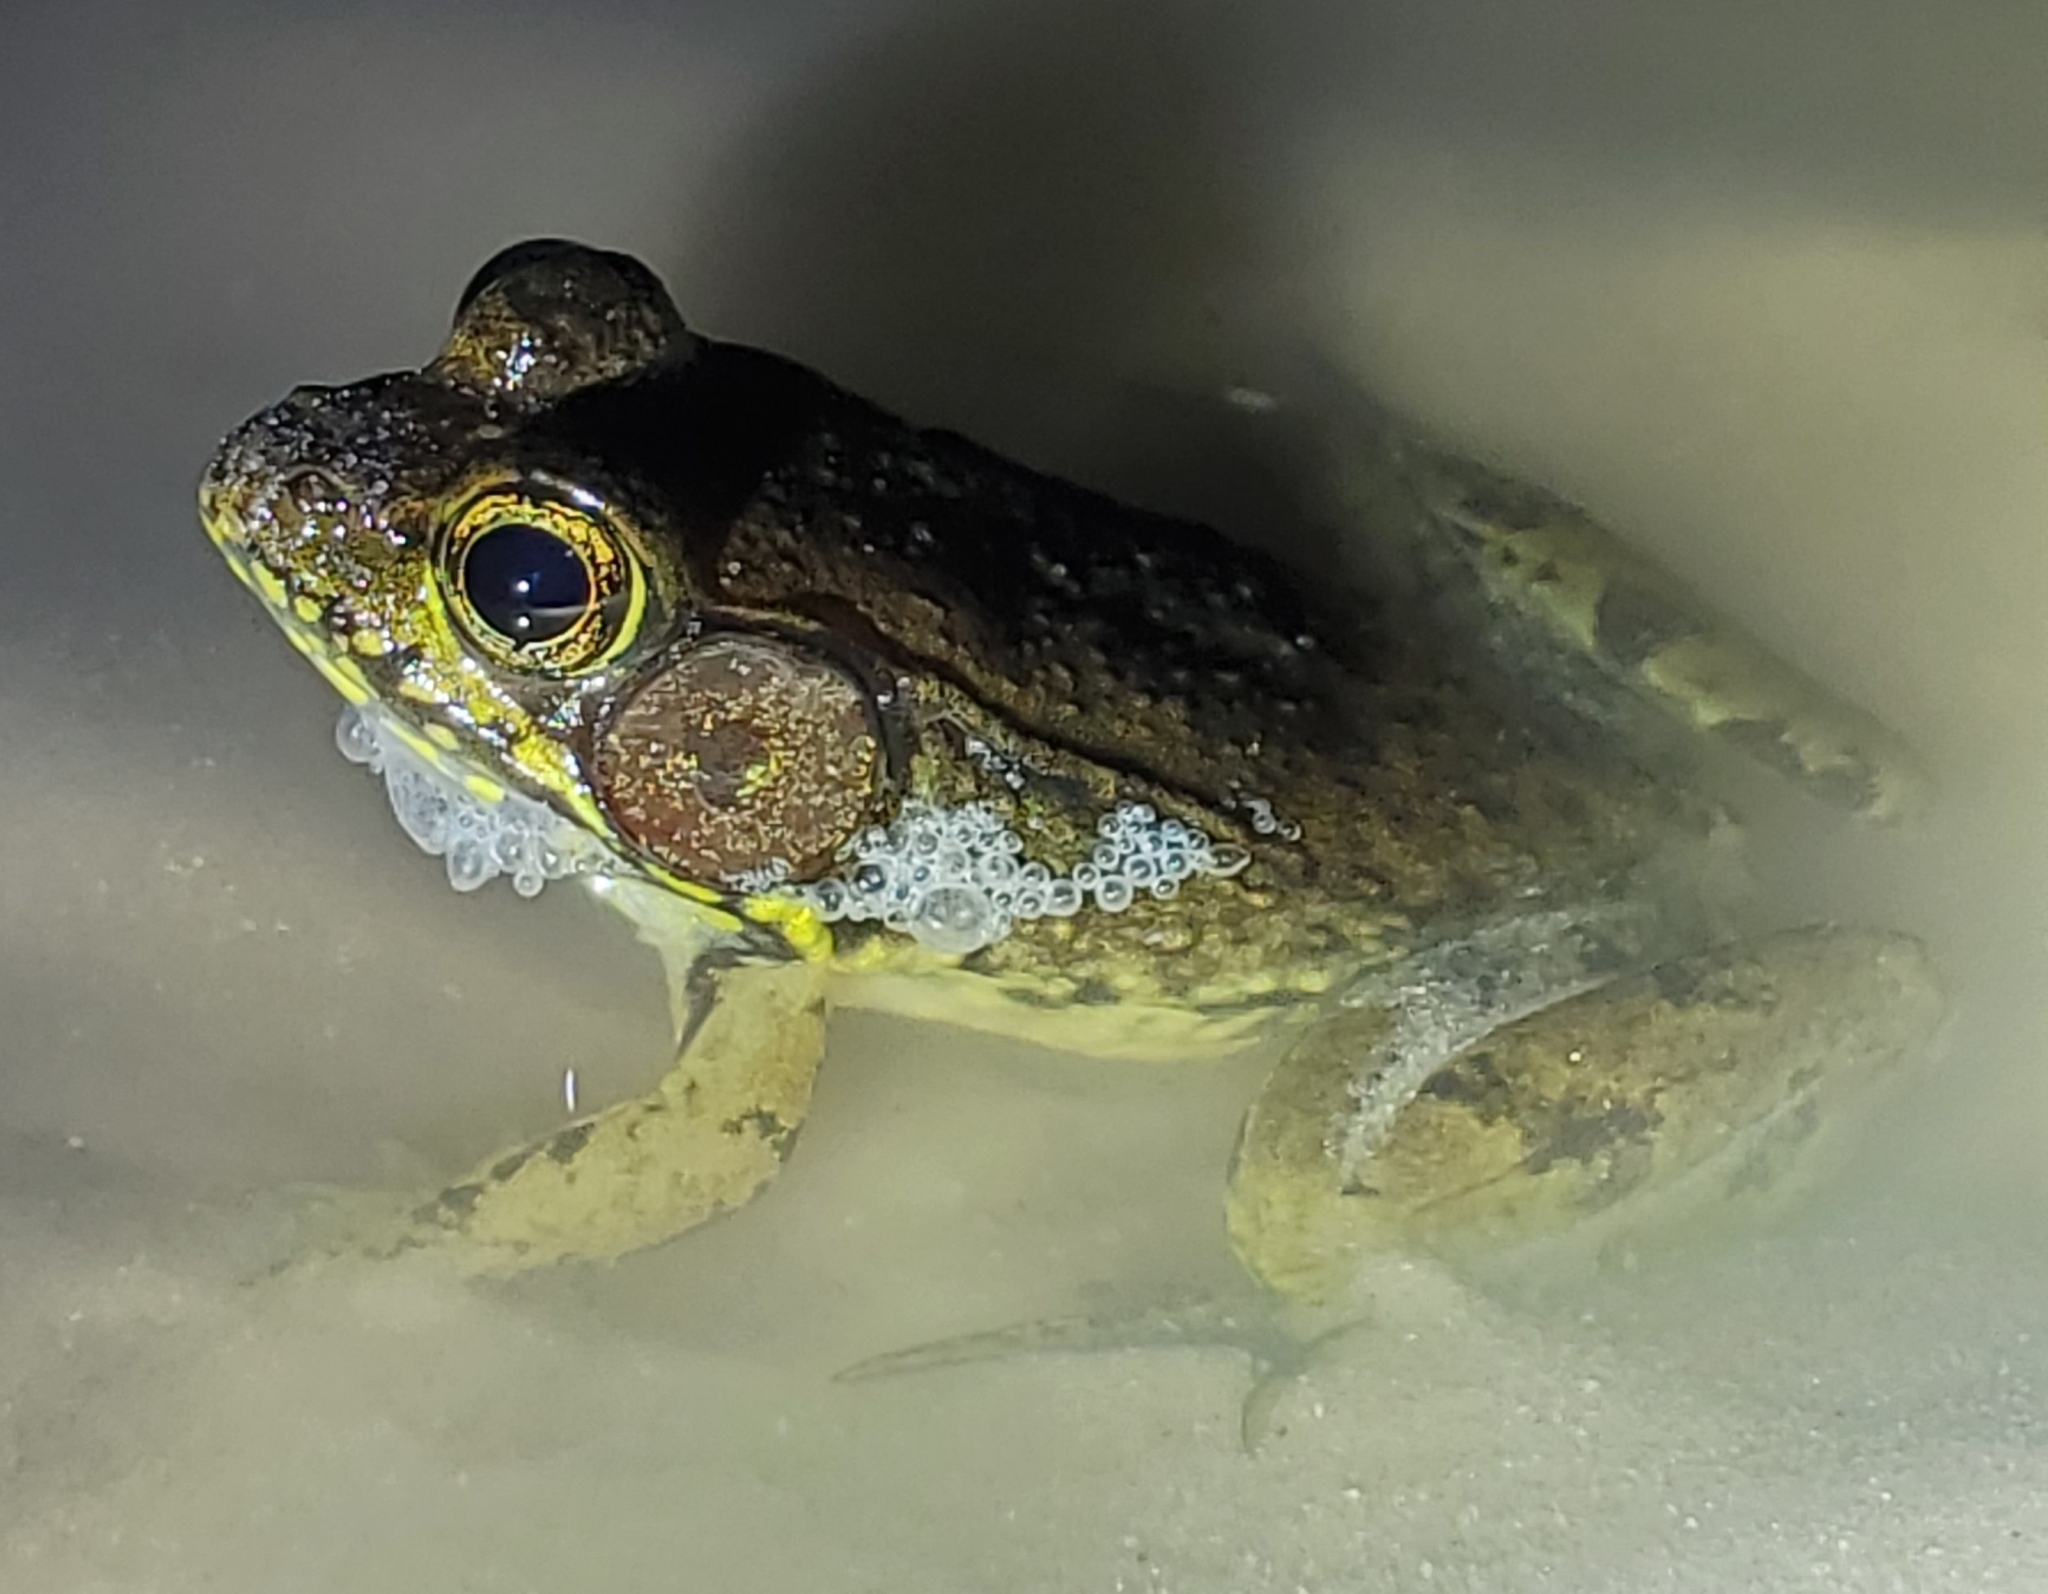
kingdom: Animalia
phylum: Chordata
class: Amphibia
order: Anura
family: Ranidae
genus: Lithobates
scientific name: Lithobates clamitans
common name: Green frog
